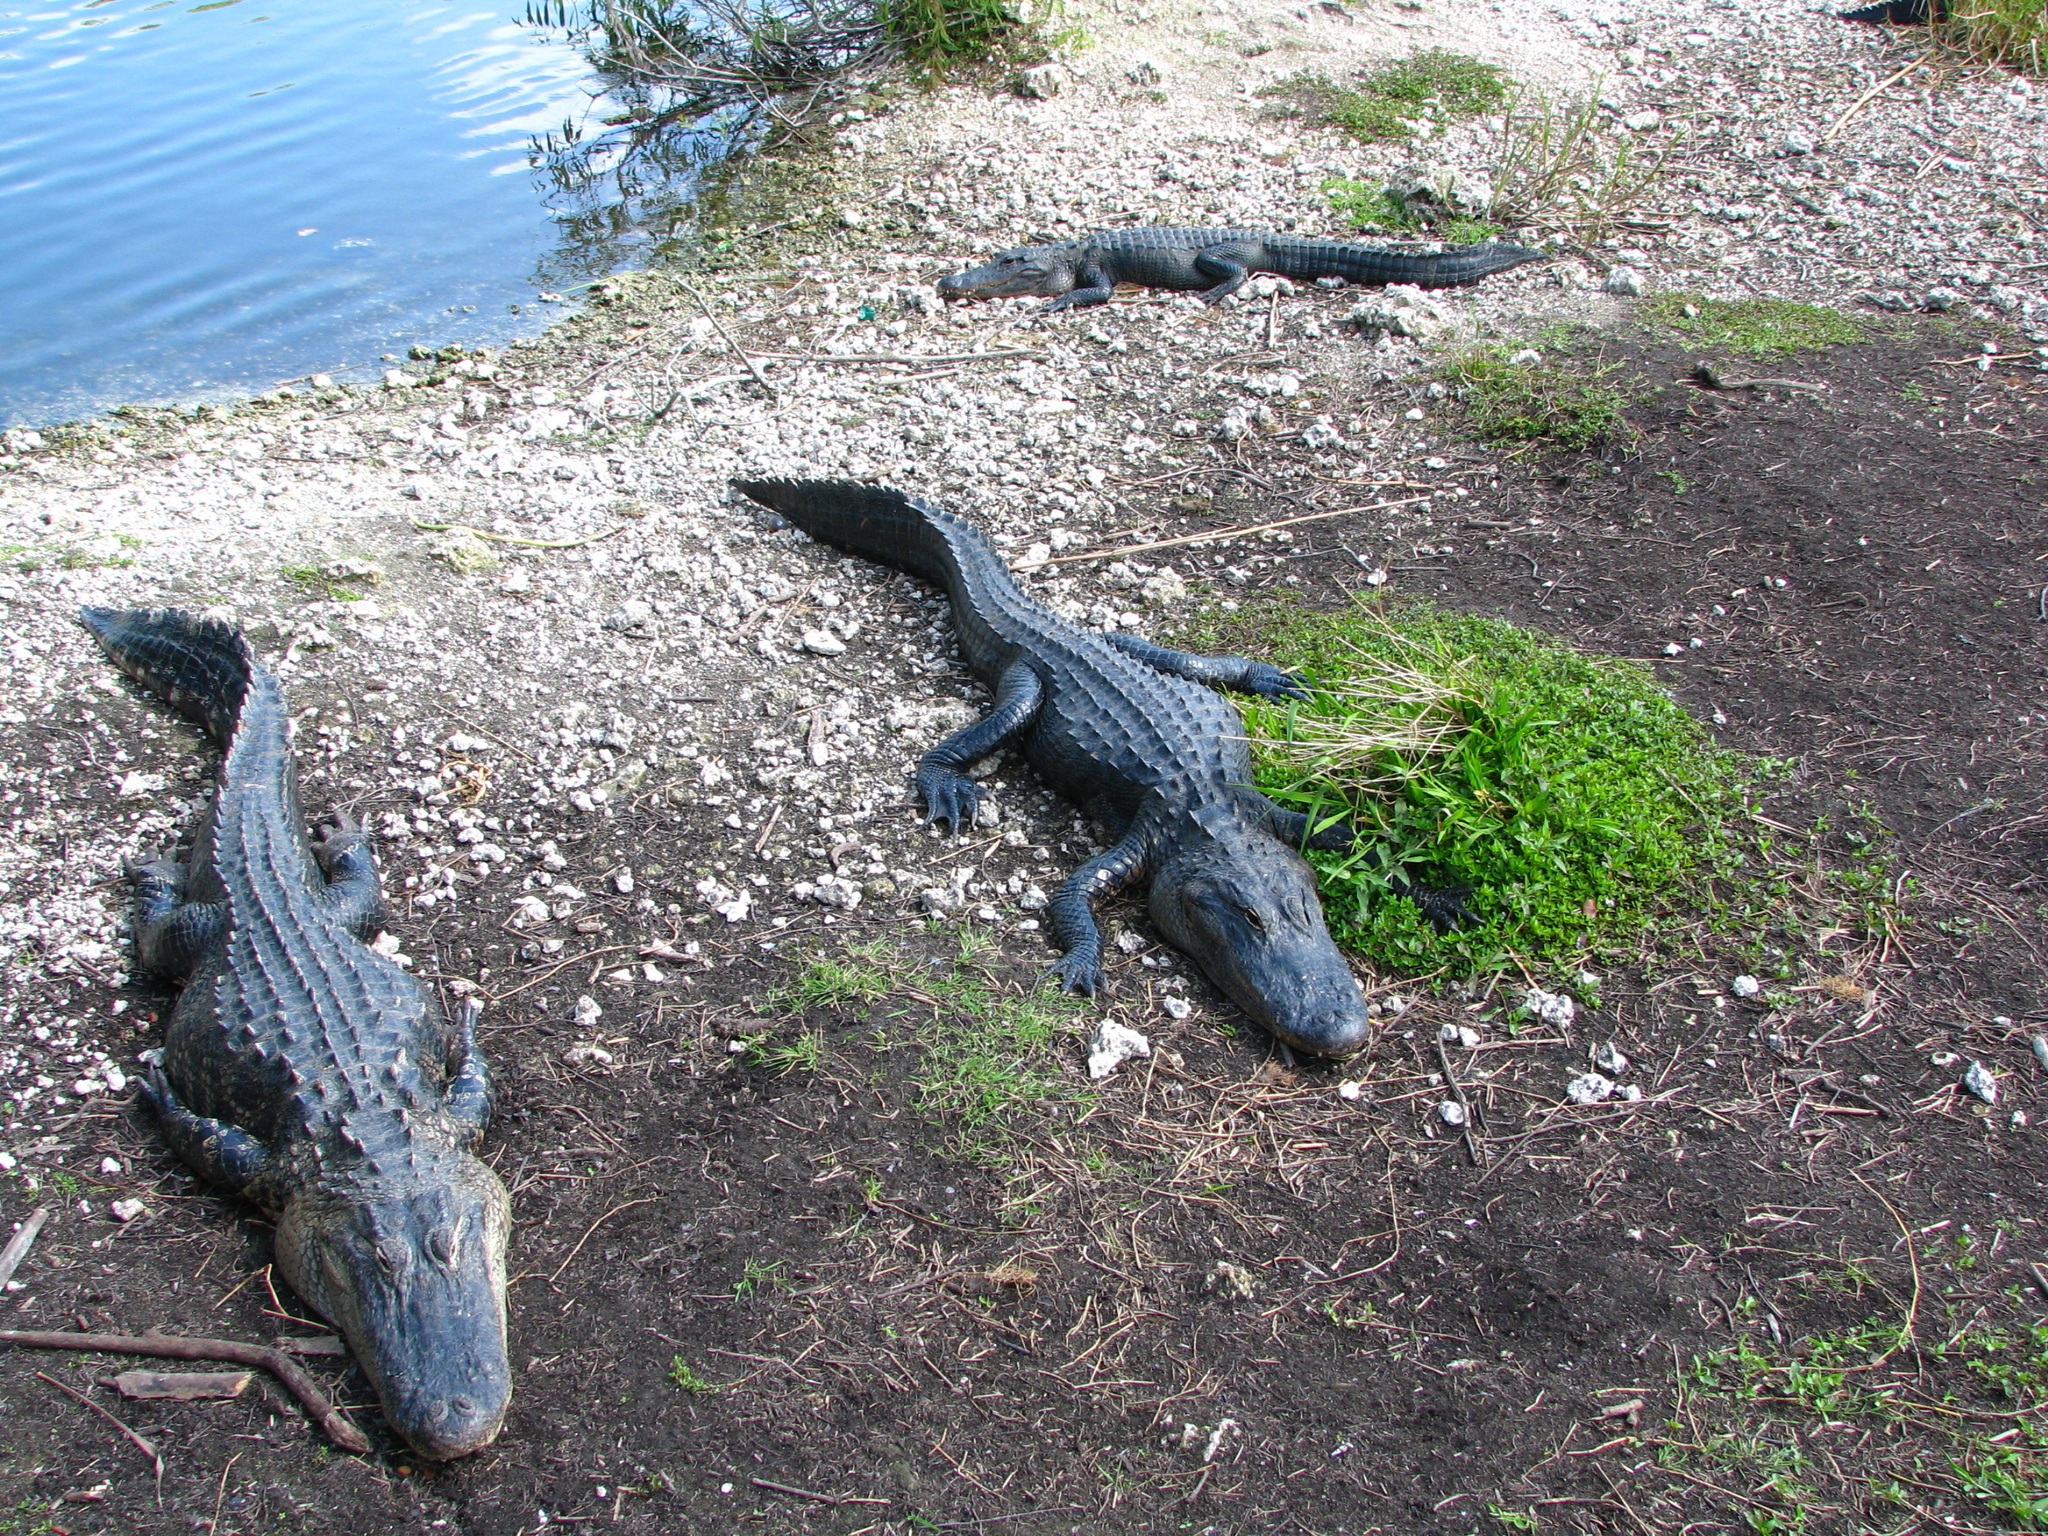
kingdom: Animalia
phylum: Chordata
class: Crocodylia
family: Alligatoridae
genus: Alligator
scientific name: Alligator mississippiensis
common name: American alligator
